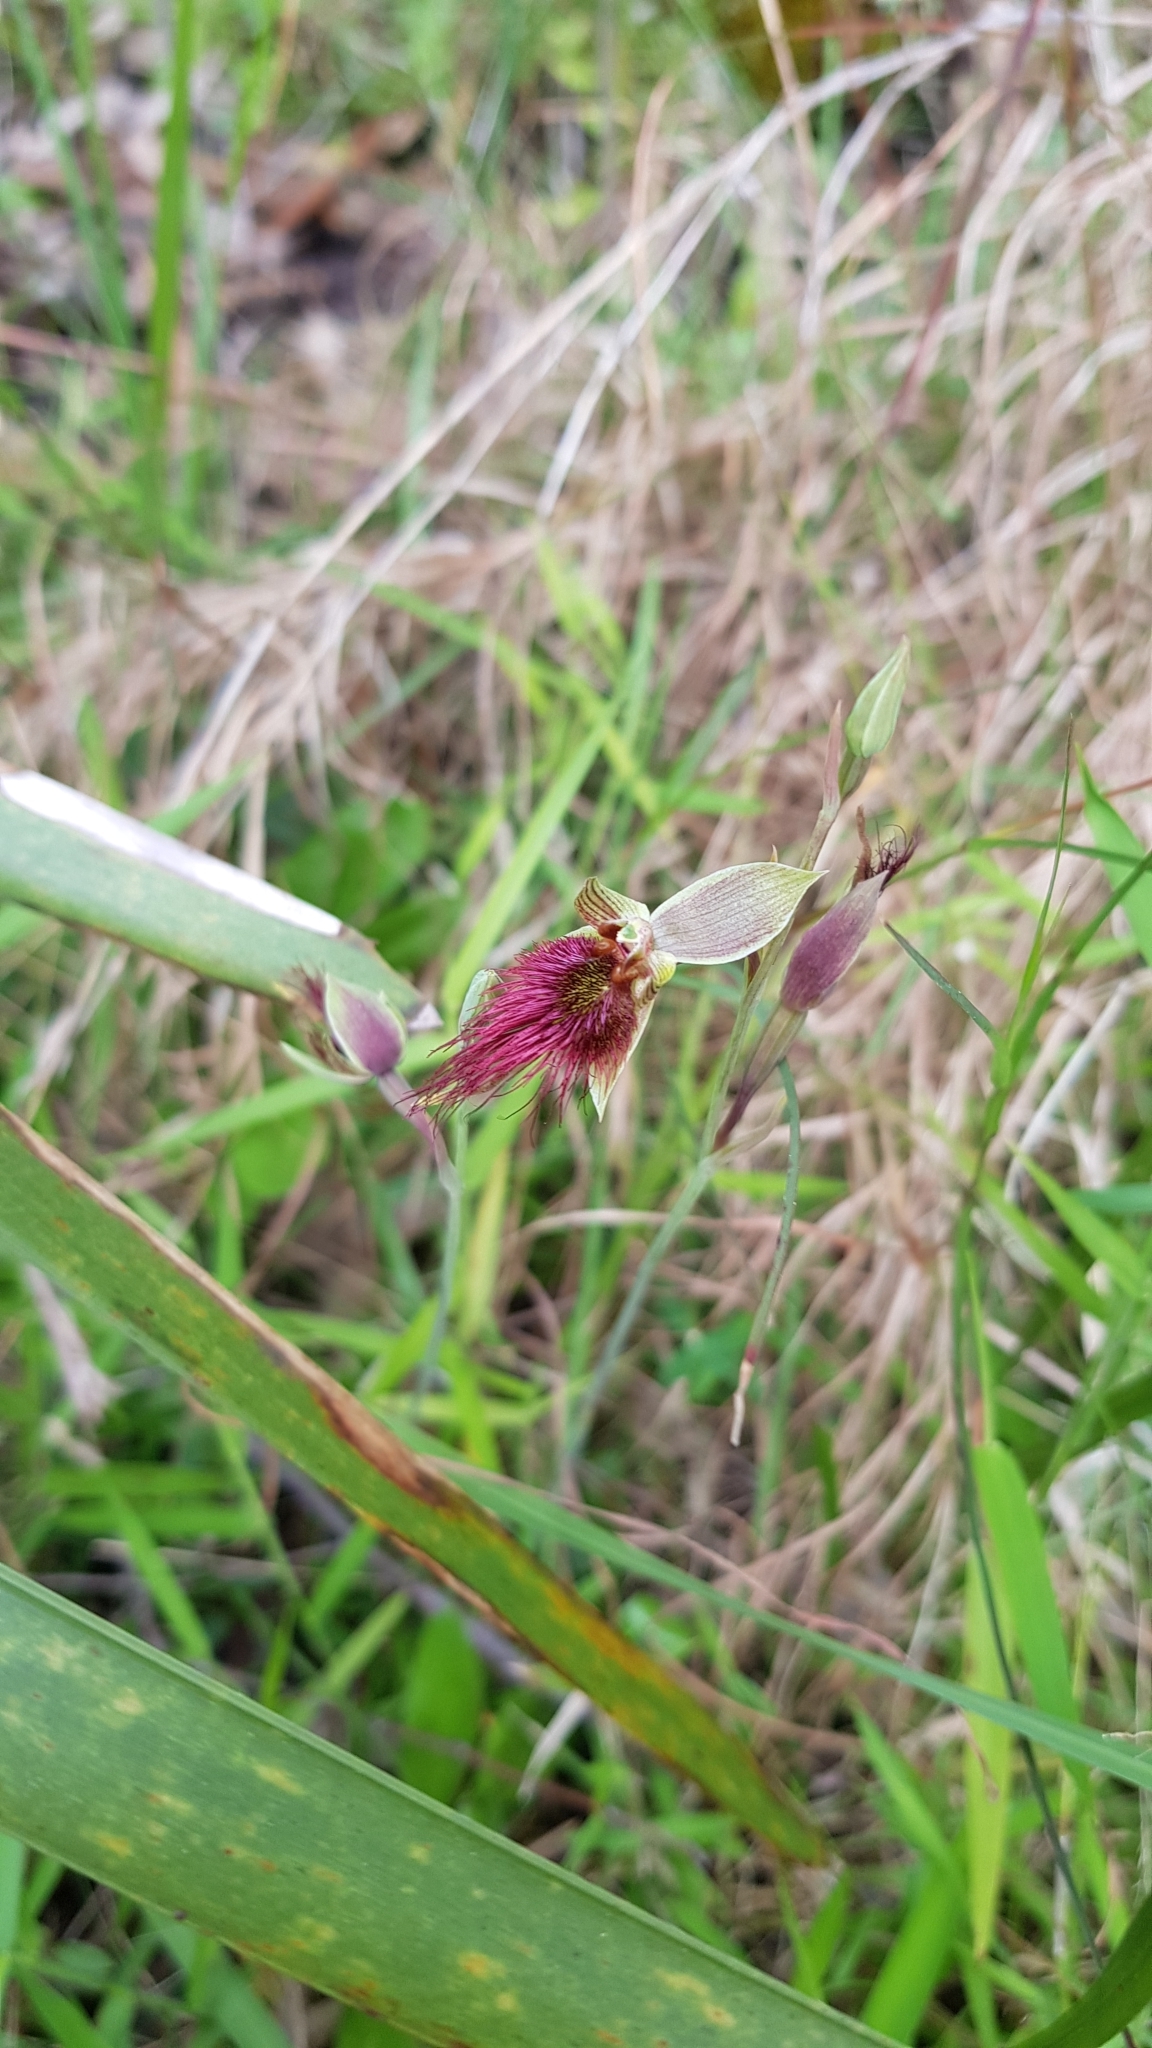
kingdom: Plantae
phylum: Tracheophyta
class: Liliopsida
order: Asparagales
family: Orchidaceae
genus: Calochilus
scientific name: Calochilus paludosus
